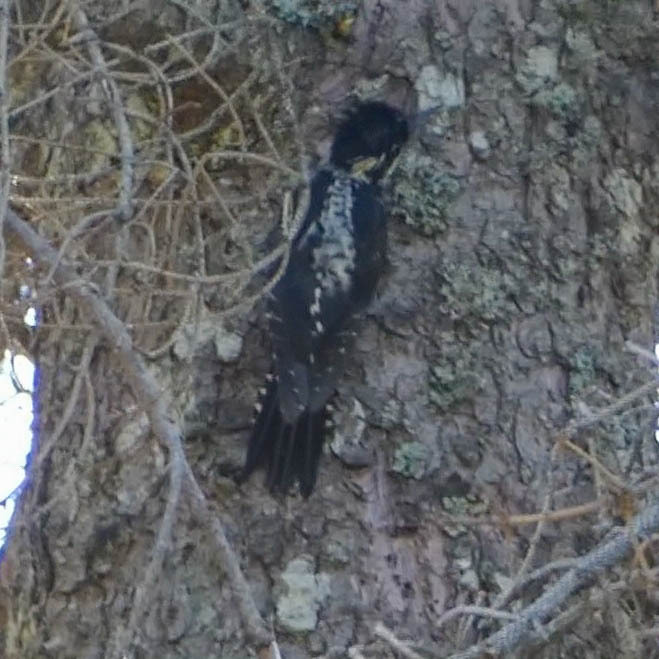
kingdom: Animalia
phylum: Chordata
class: Aves
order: Piciformes
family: Picidae
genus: Picoides
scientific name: Picoides tridactylus
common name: Eurasian three-toed woodpecker
